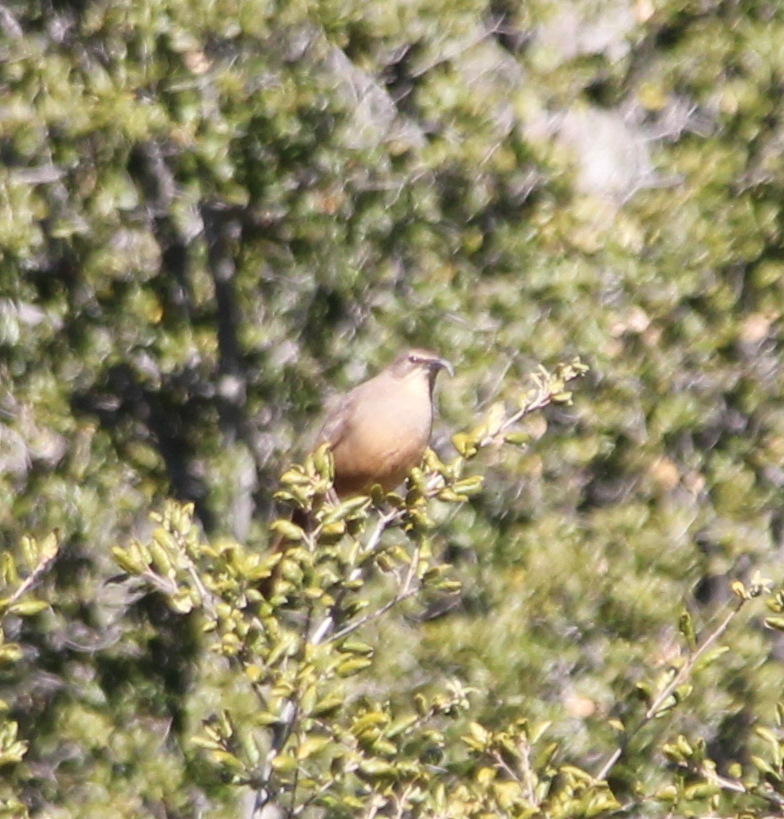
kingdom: Animalia
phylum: Chordata
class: Aves
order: Passeriformes
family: Mimidae
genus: Toxostoma
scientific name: Toxostoma redivivum
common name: California thrasher
